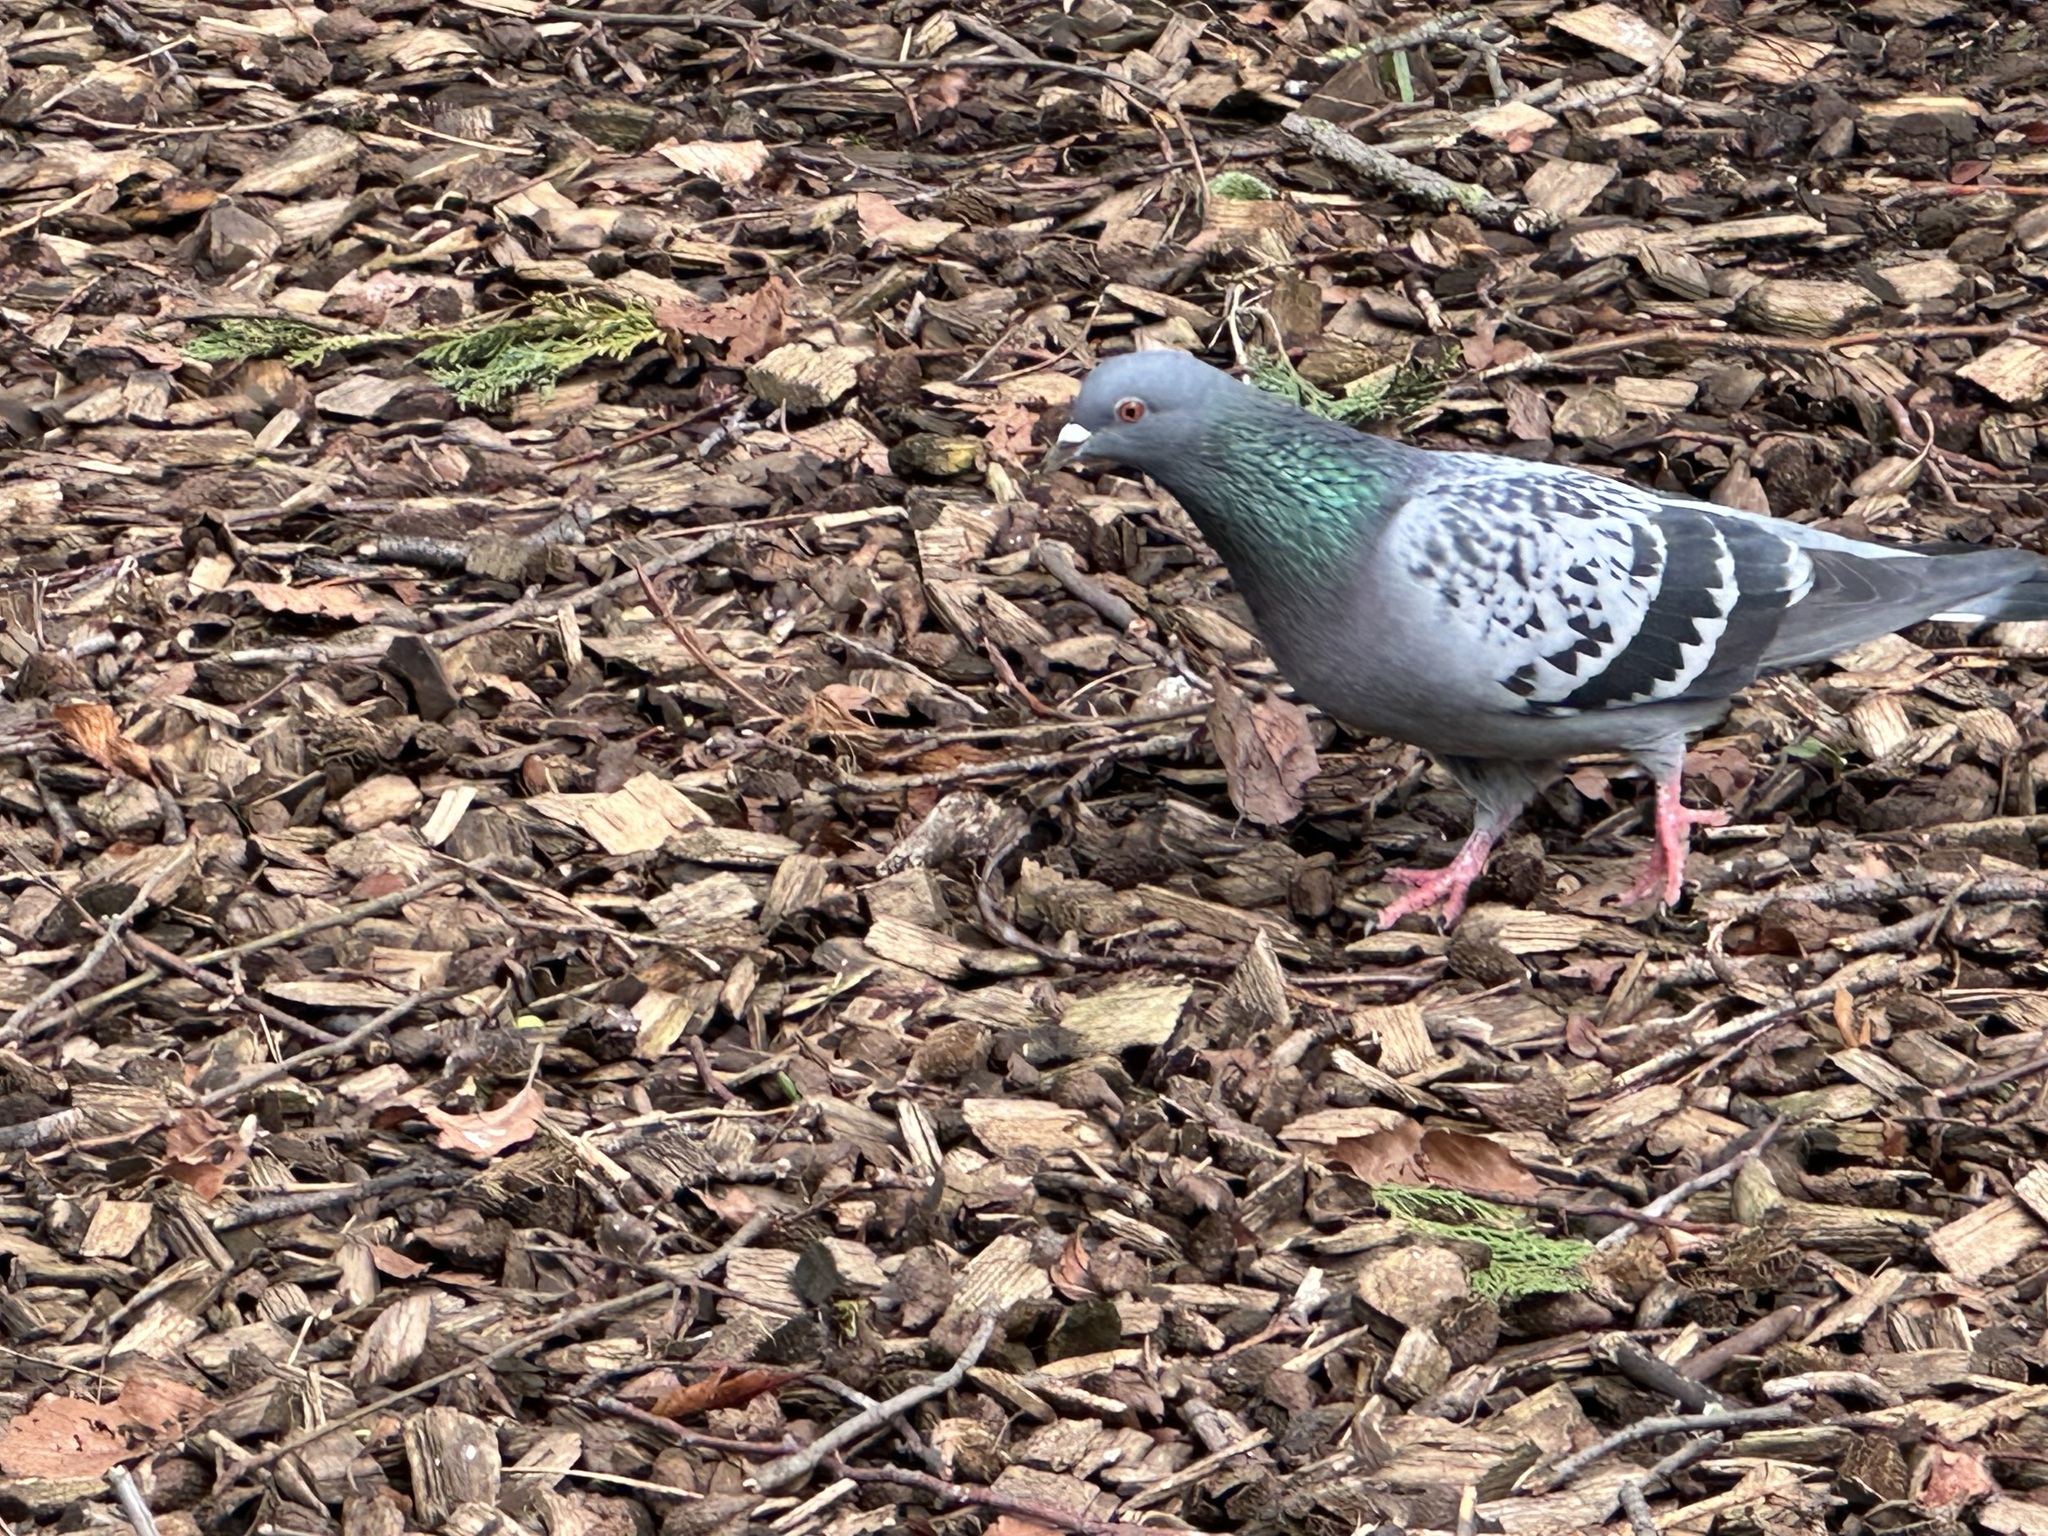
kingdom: Animalia
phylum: Chordata
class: Aves
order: Columbiformes
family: Columbidae
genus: Columba
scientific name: Columba livia
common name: Rock pigeon
